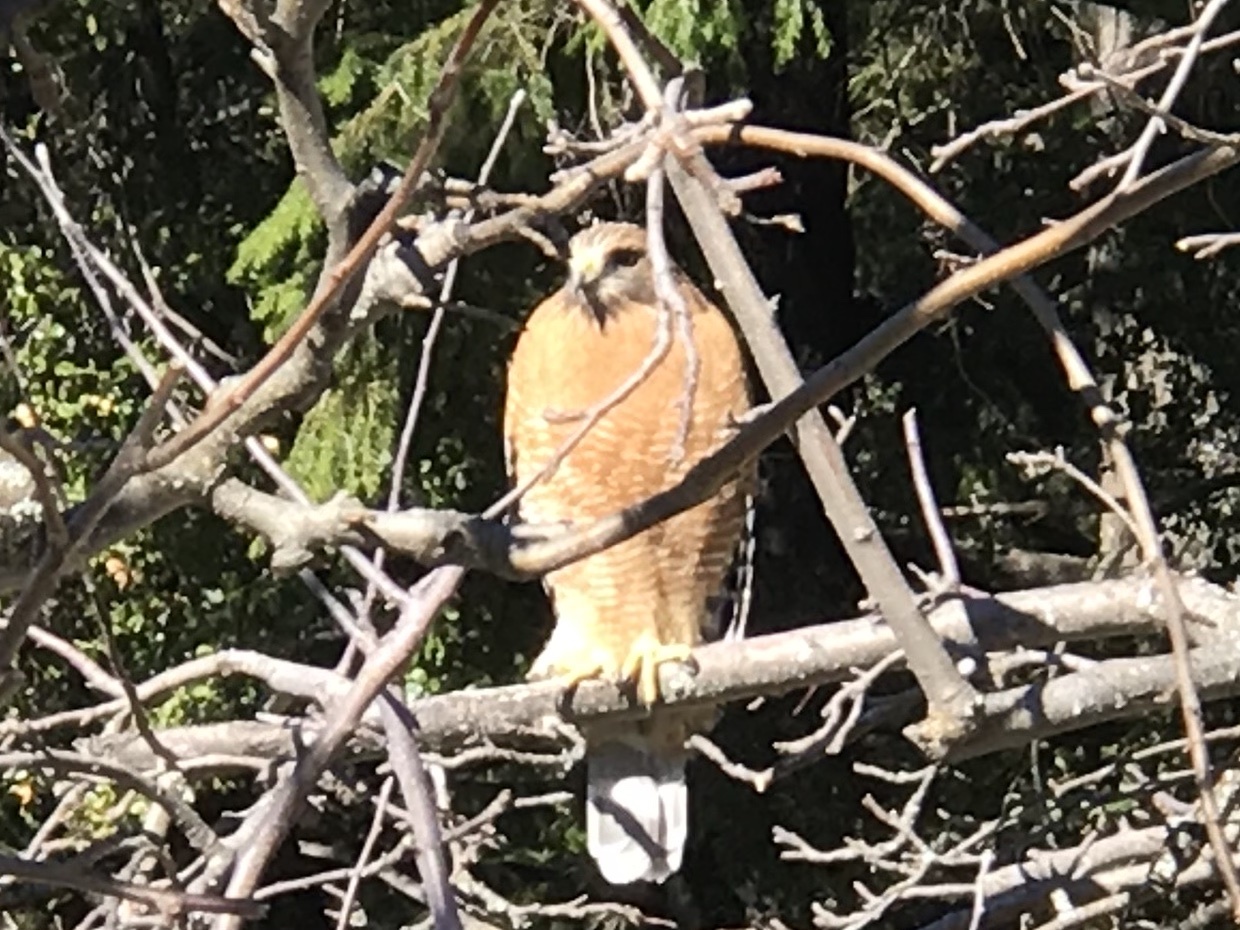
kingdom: Animalia
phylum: Chordata
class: Aves
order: Accipitriformes
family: Accipitridae
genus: Buteo
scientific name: Buteo lineatus
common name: Red-shouldered hawk
